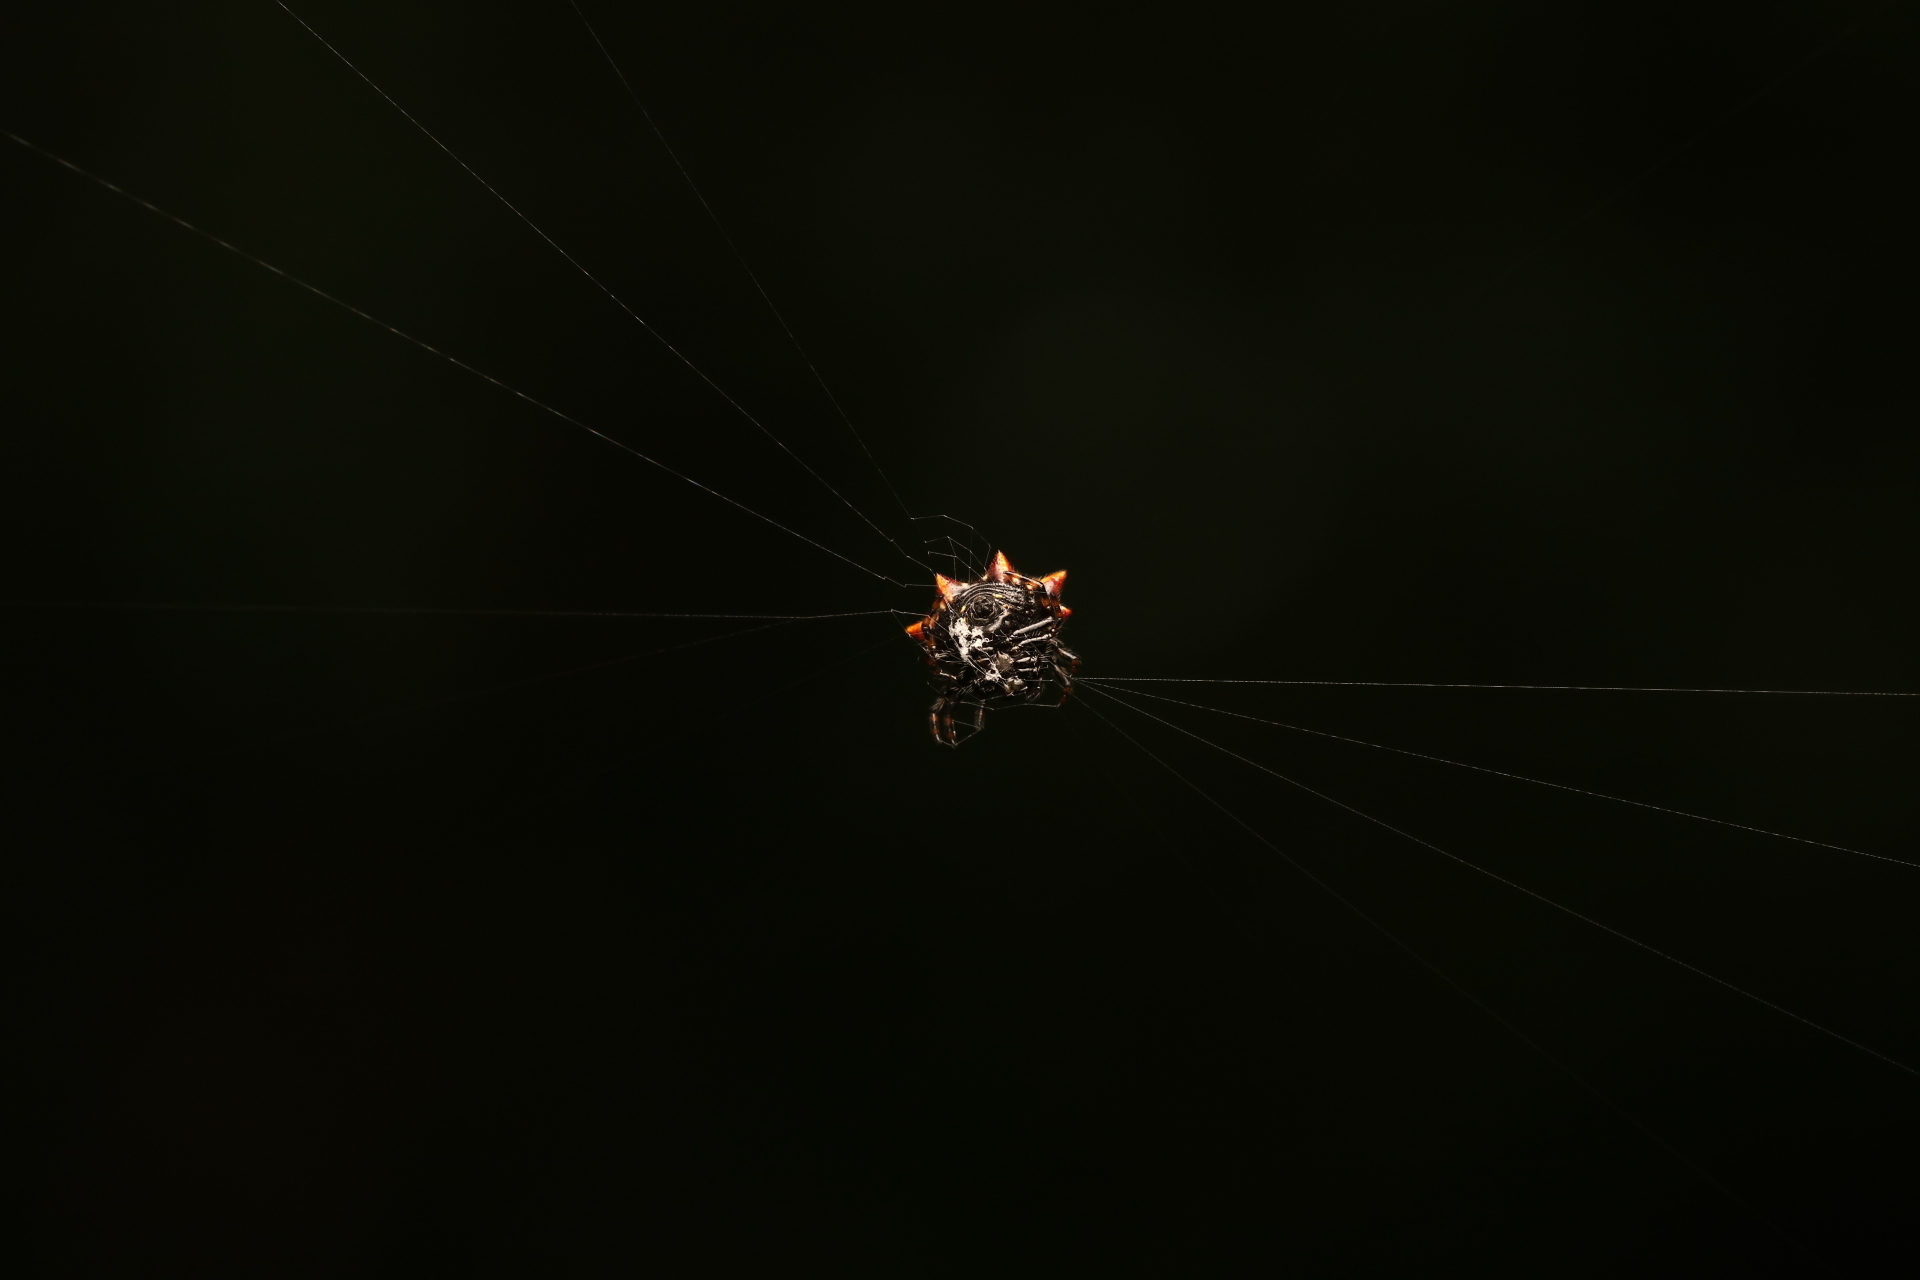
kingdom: Animalia
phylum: Arthropoda
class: Arachnida
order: Araneae
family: Araneidae
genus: Gasteracantha
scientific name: Gasteracantha cancriformis
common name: Orb weavers
